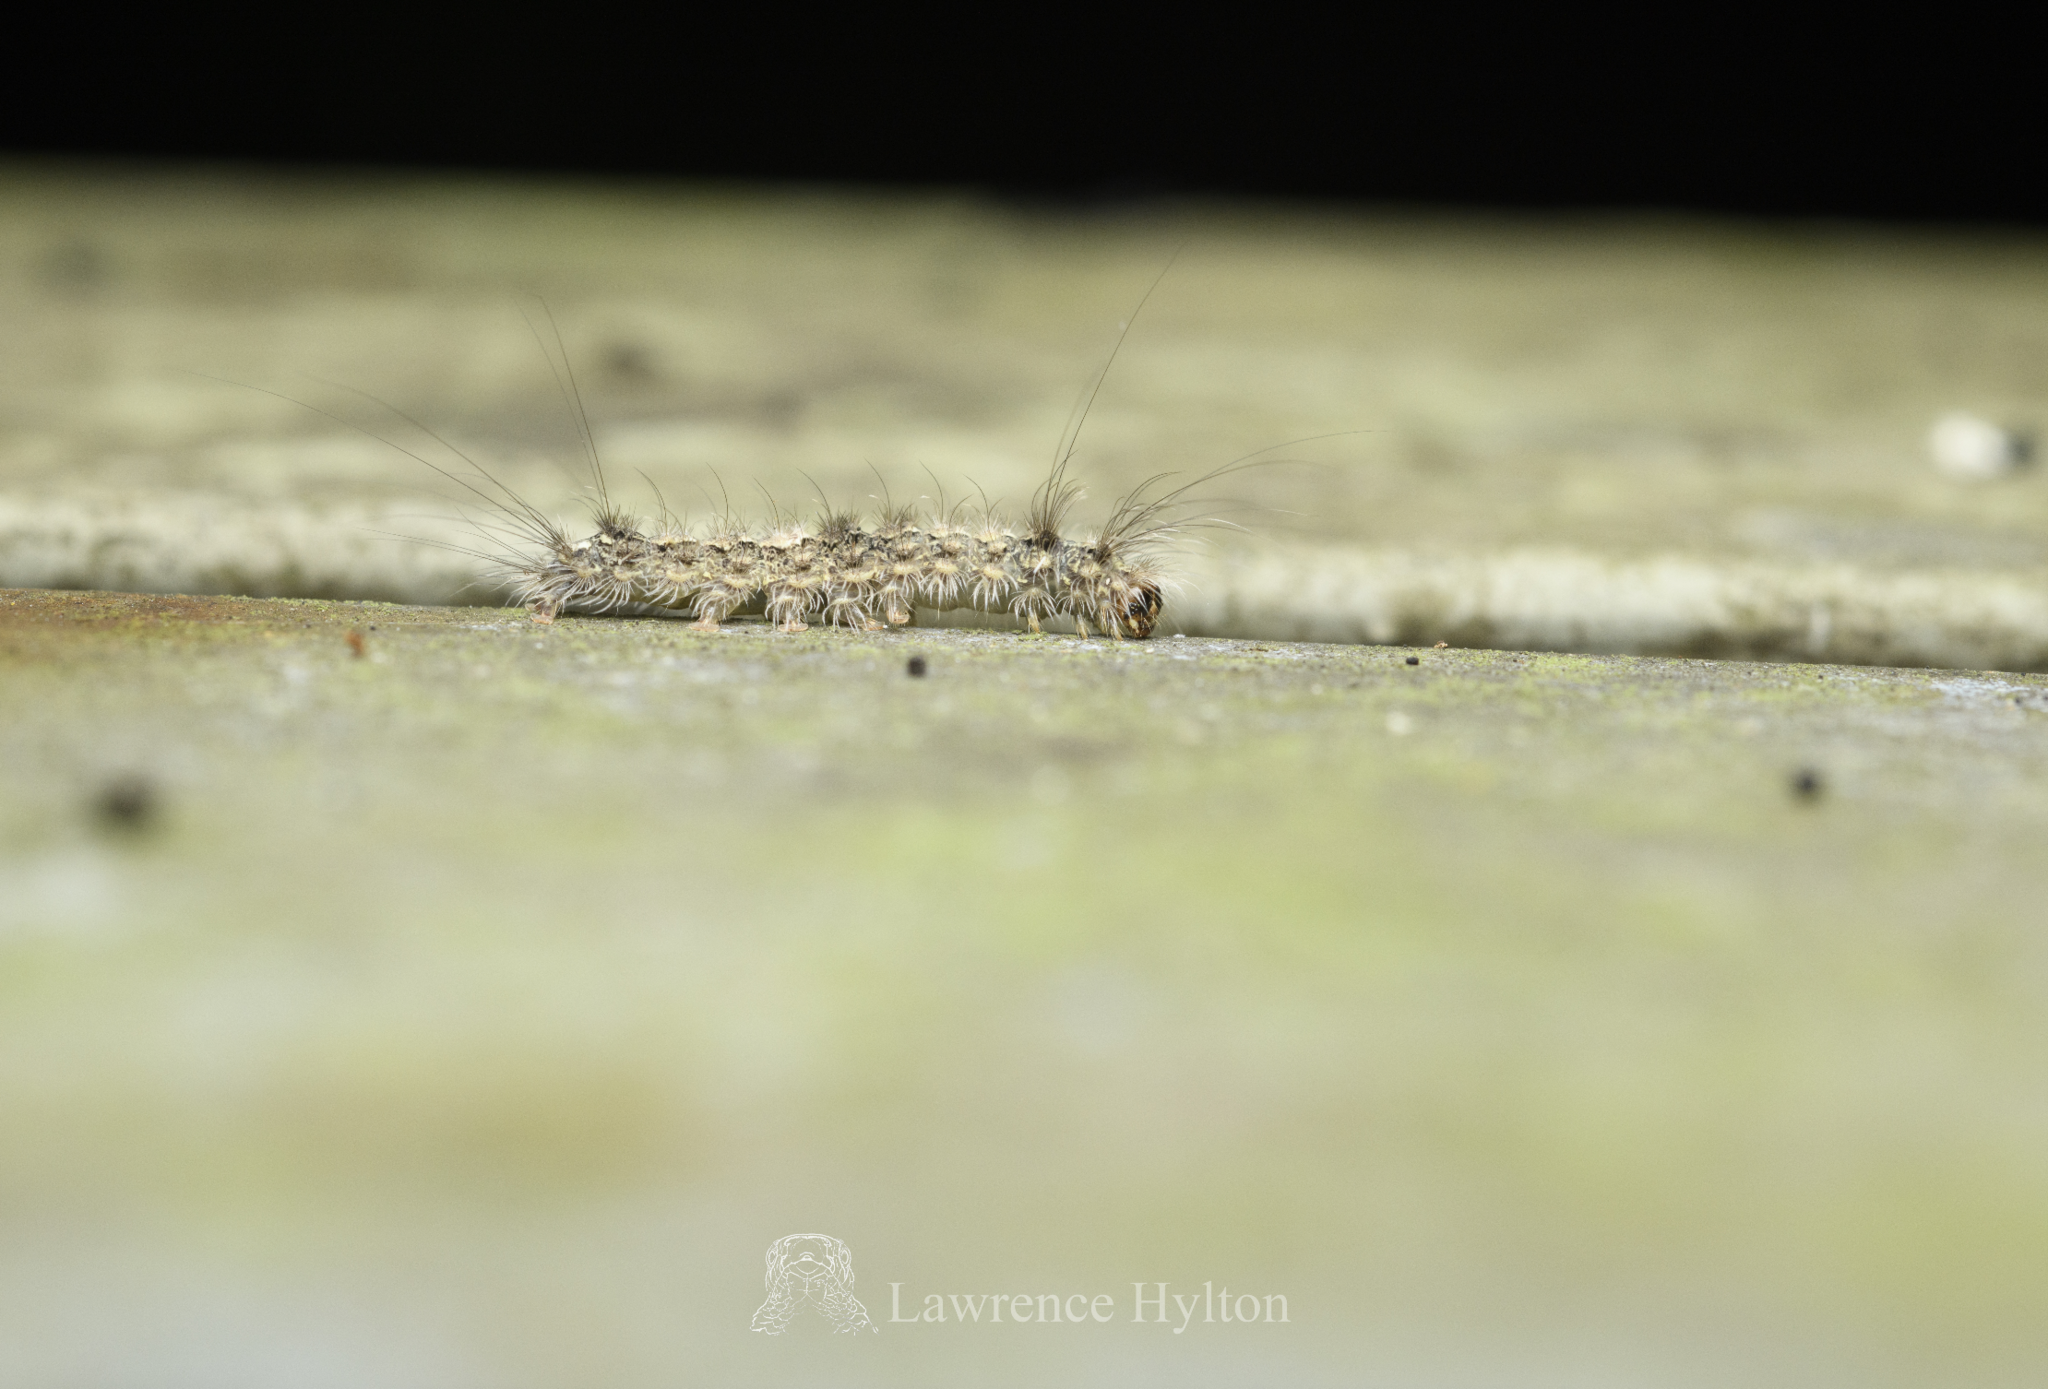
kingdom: Animalia
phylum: Arthropoda
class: Insecta
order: Lepidoptera
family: Erebidae
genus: Brunia
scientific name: Brunia antica
